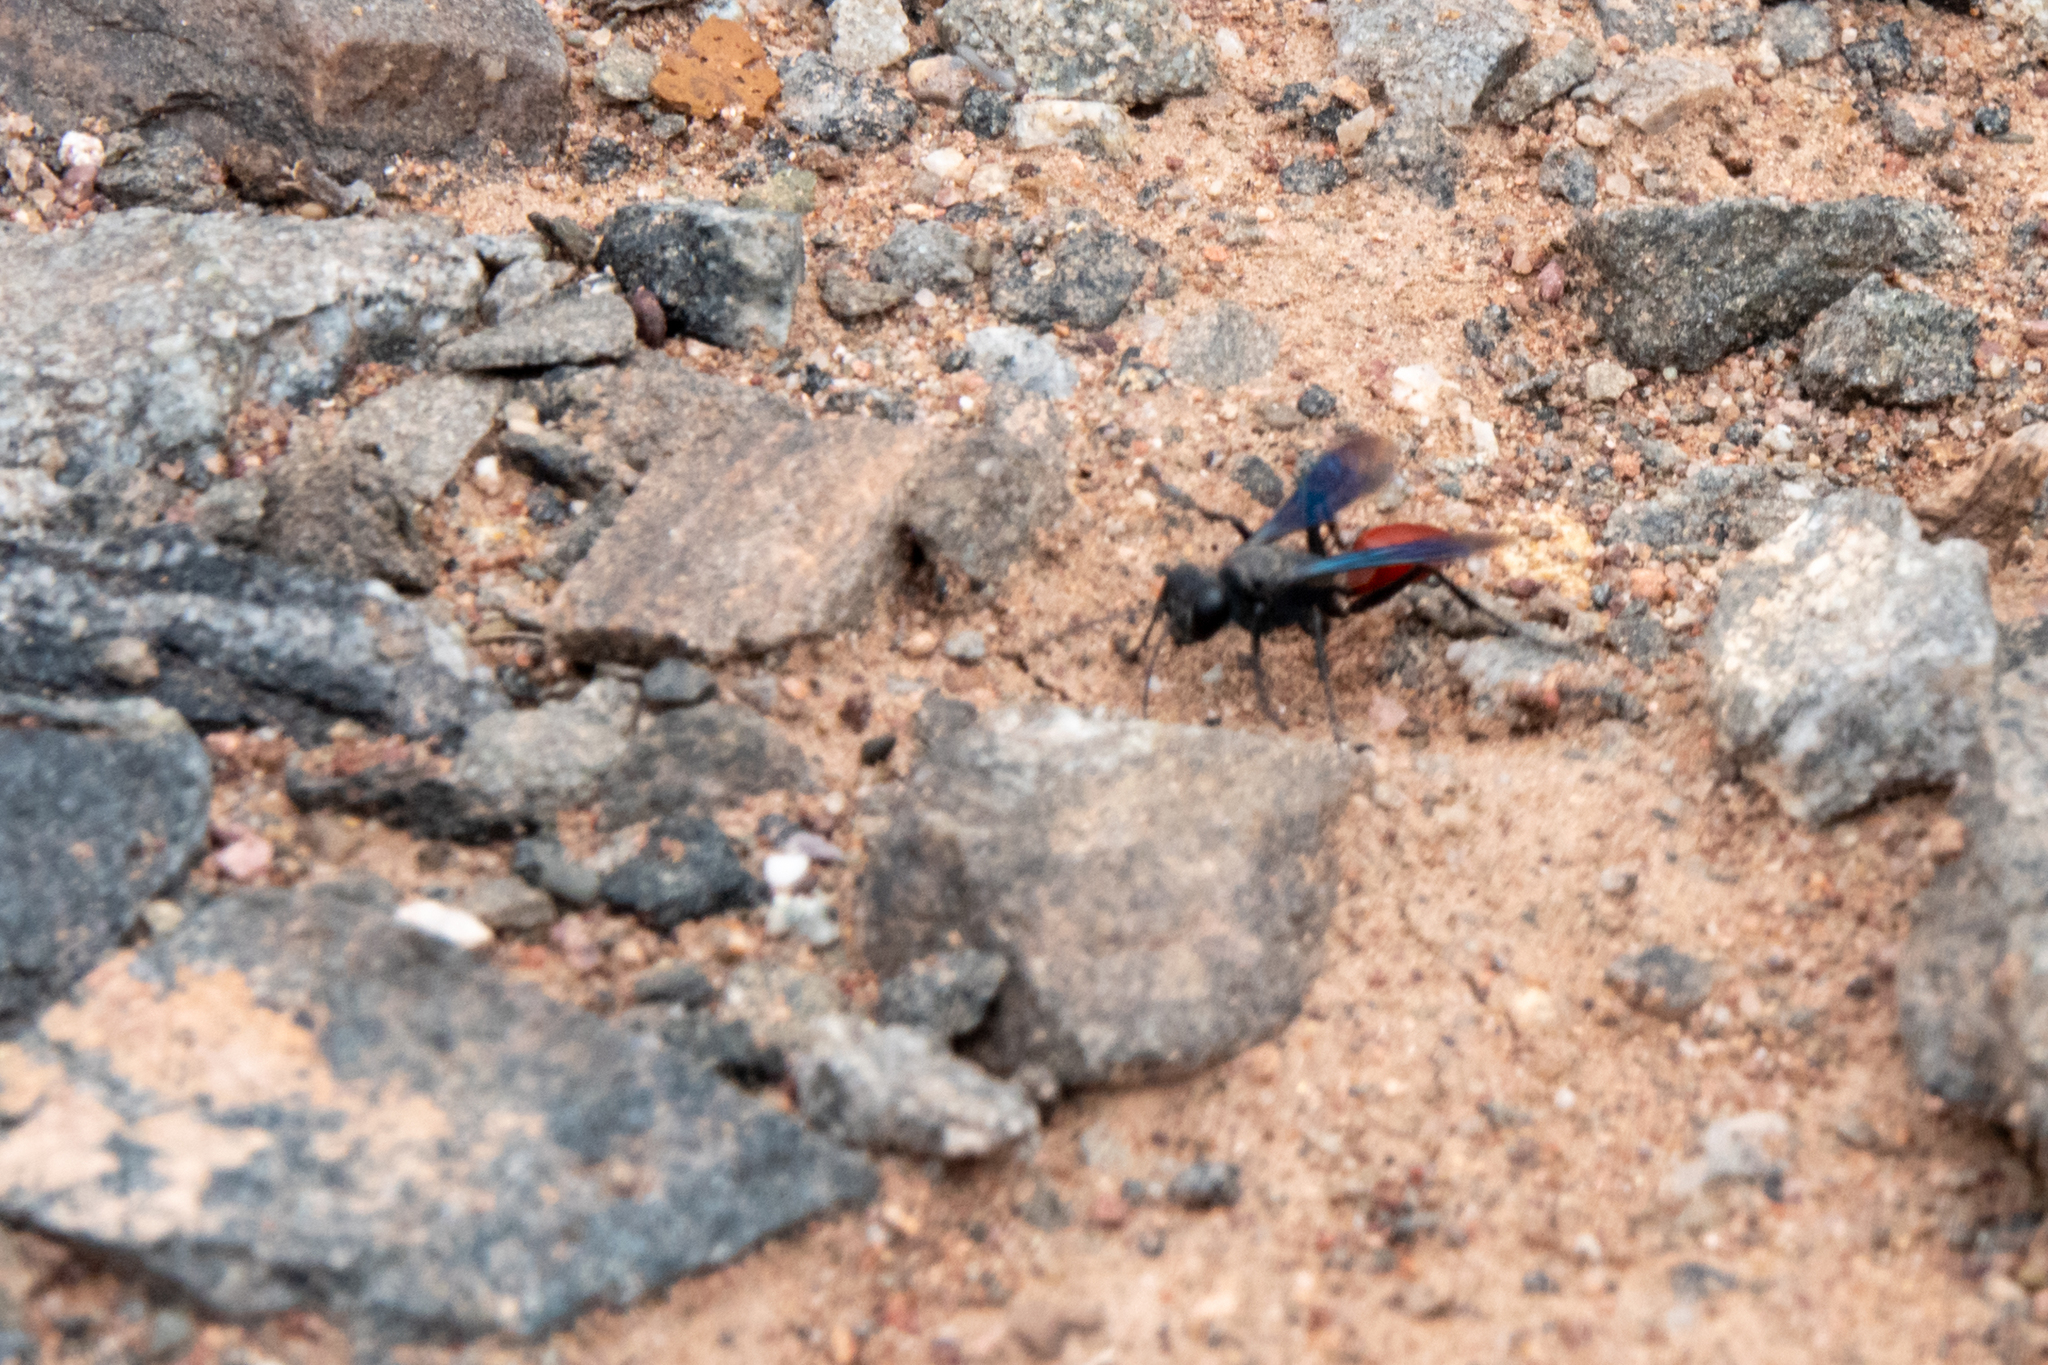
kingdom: Animalia
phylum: Arthropoda
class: Insecta
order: Hymenoptera
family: Sphecidae
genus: Prionyx
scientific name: Prionyx spinolae
